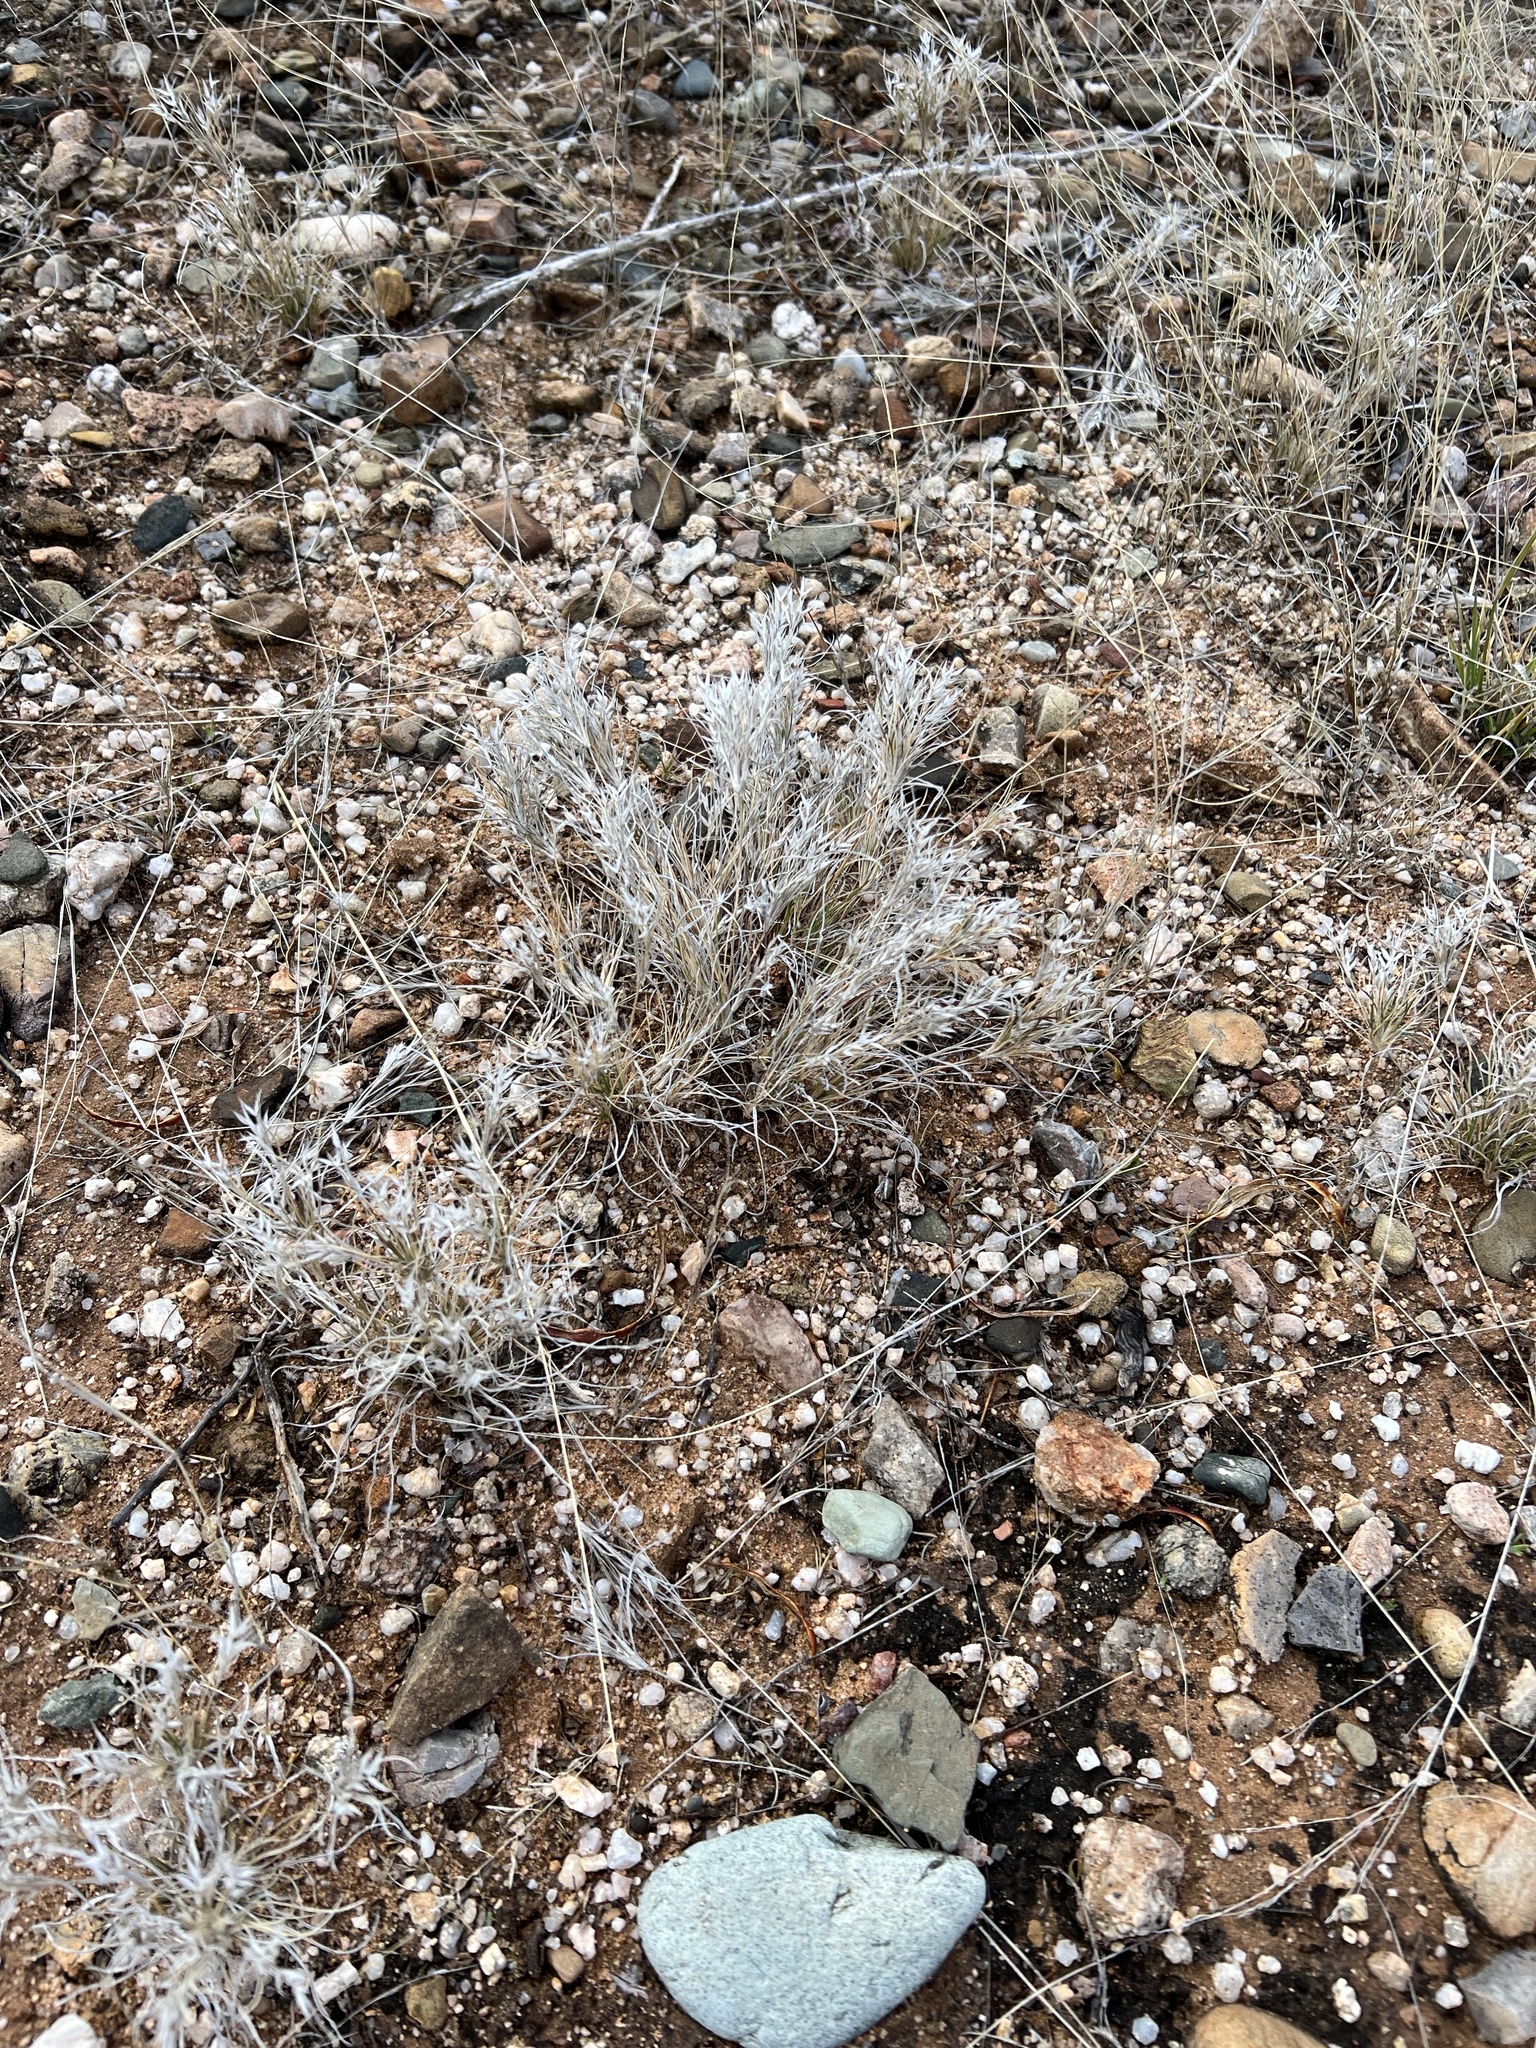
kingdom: Plantae
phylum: Tracheophyta
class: Liliopsida
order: Poales
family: Poaceae
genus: Dasyochloa
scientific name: Dasyochloa pulchella
